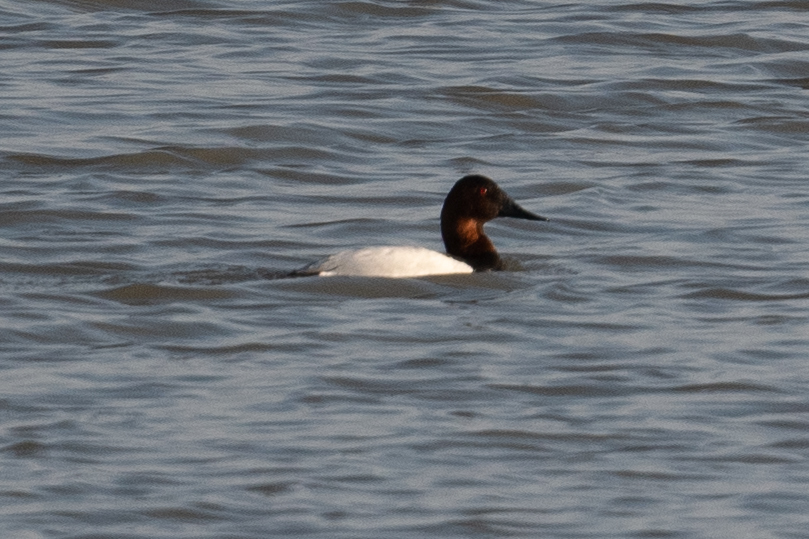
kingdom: Animalia
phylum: Chordata
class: Aves
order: Anseriformes
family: Anatidae
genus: Aythya
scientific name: Aythya valisineria
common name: Canvasback
